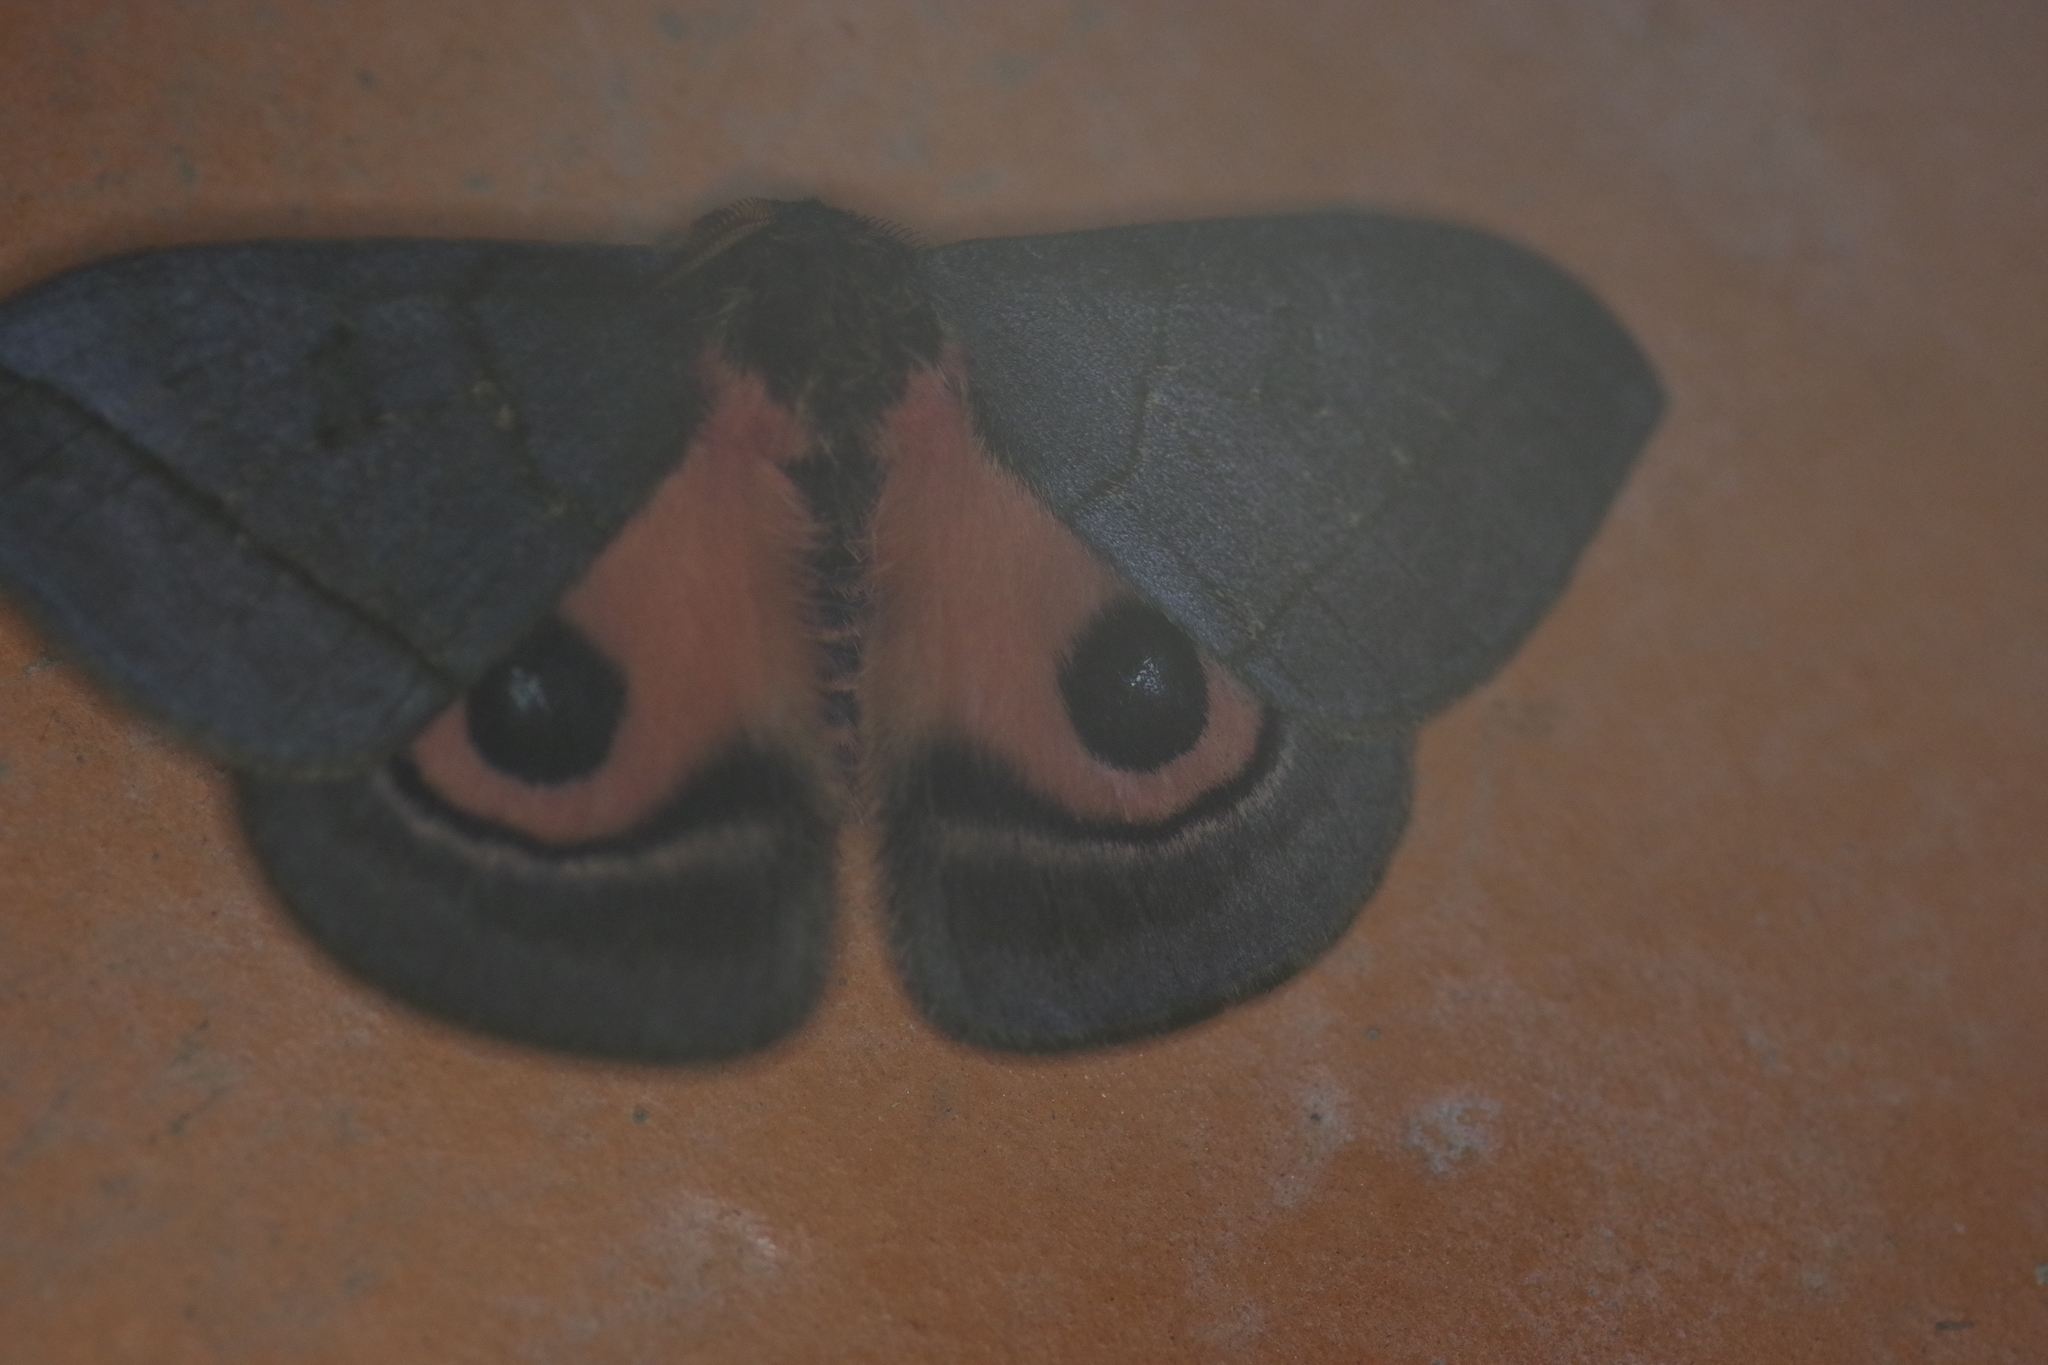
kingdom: Animalia
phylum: Arthropoda
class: Insecta
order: Lepidoptera
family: Saturniidae
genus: Automeris
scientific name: Automeris paracelata
